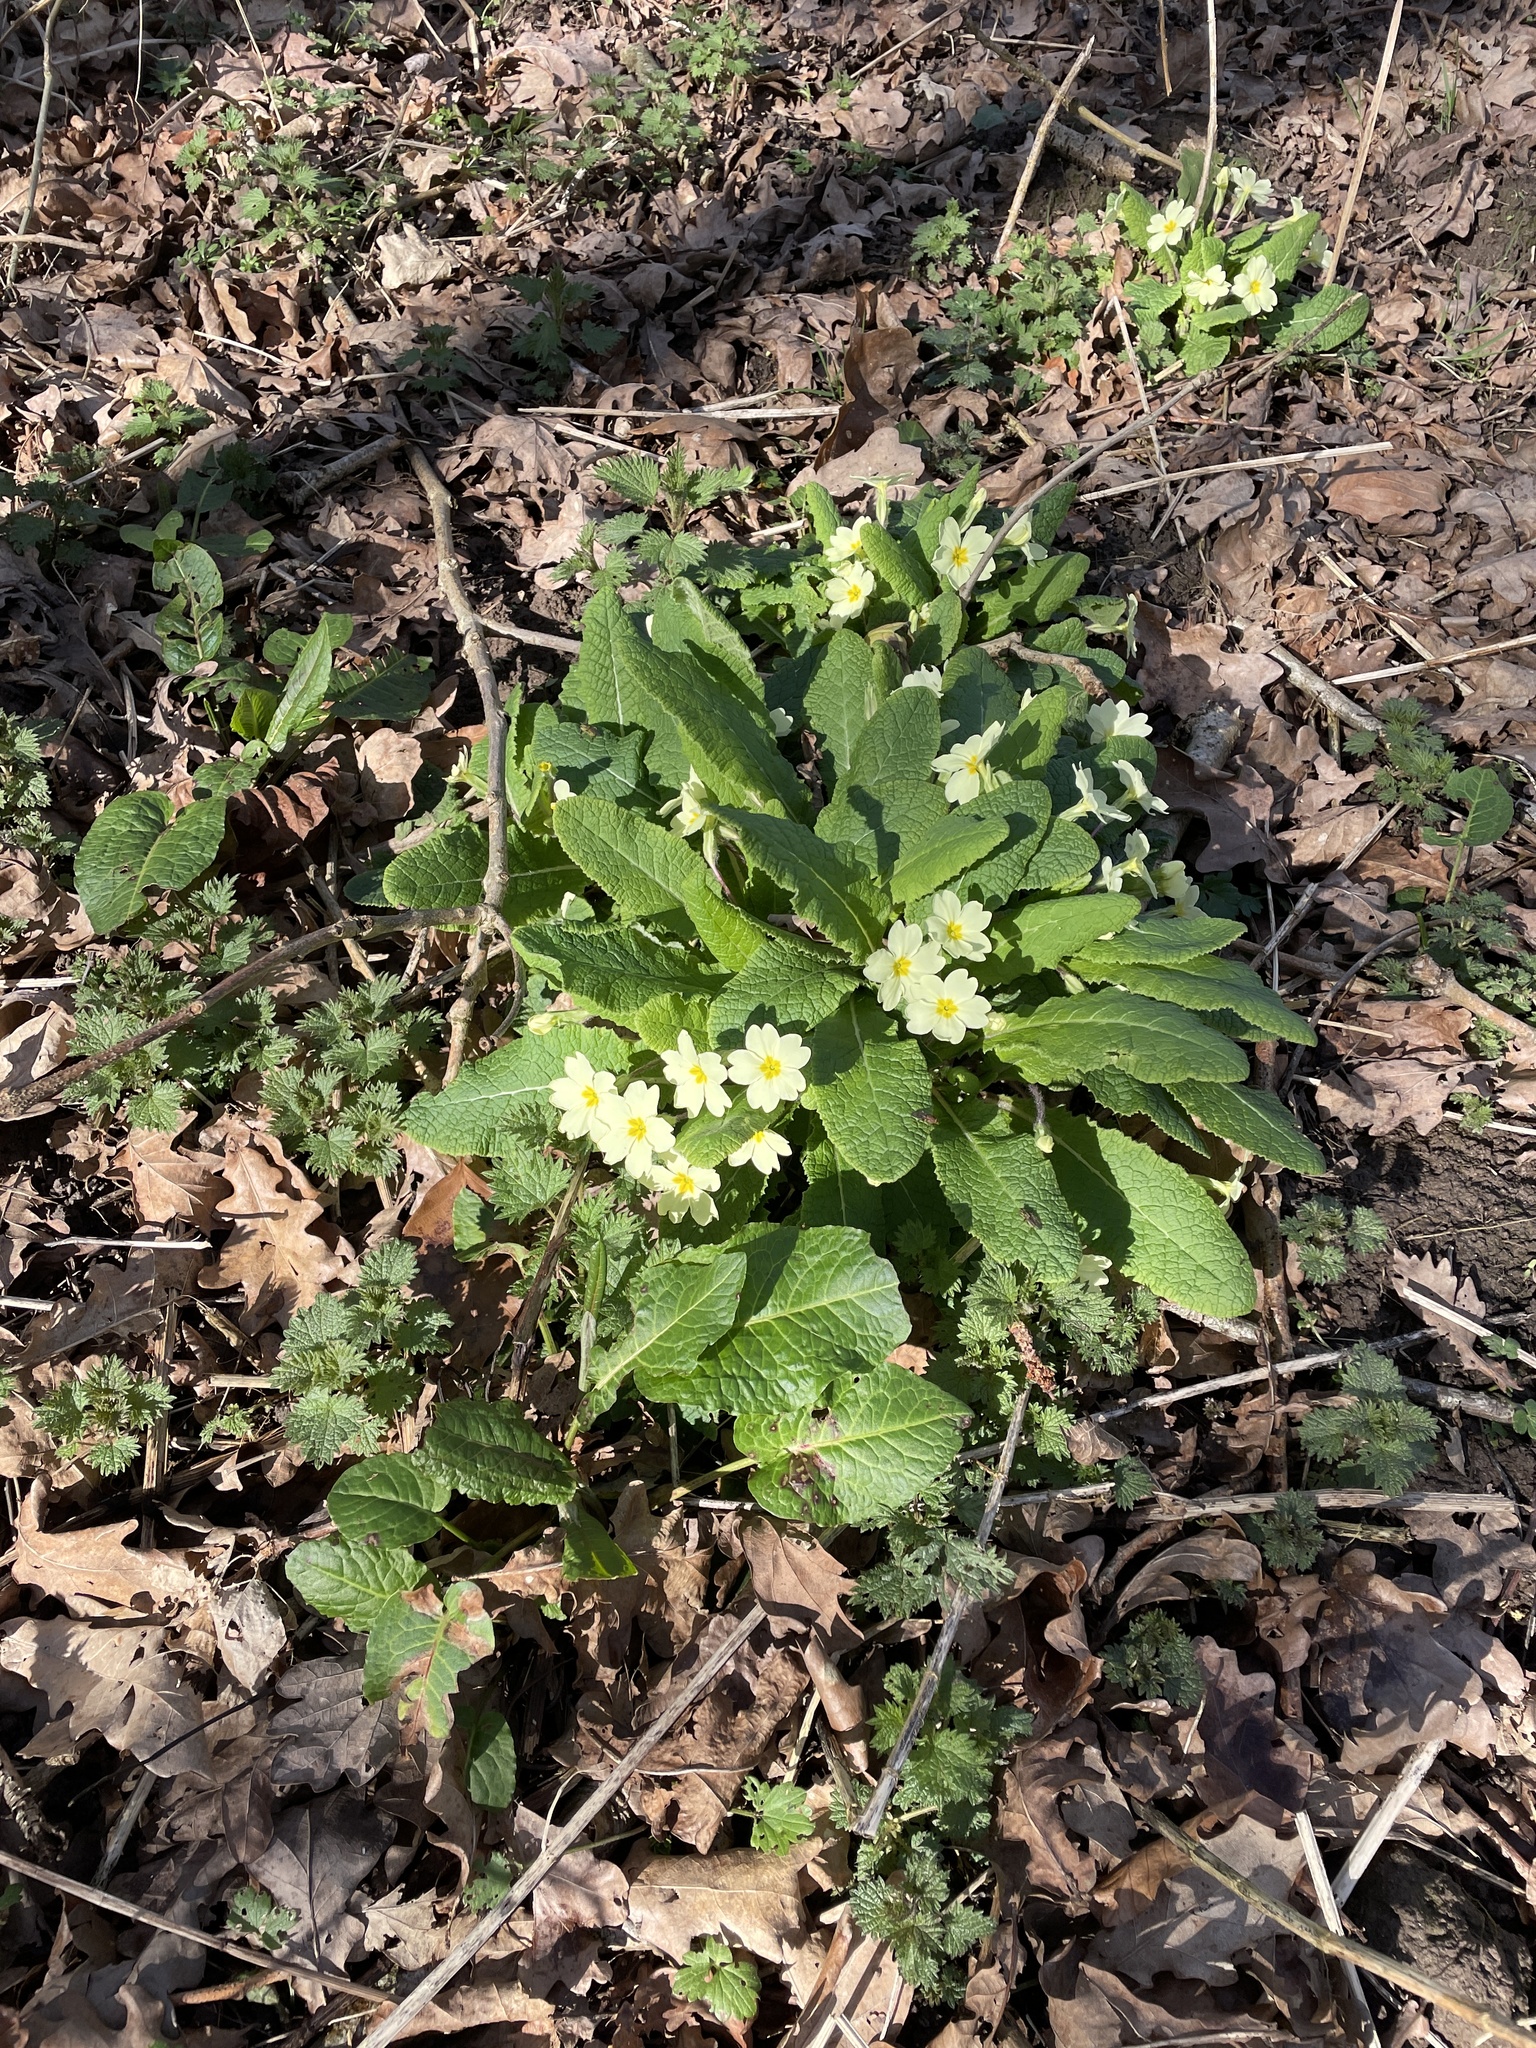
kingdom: Plantae
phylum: Tracheophyta
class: Magnoliopsida
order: Ericales
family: Primulaceae
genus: Primula
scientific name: Primula vulgaris
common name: Primrose
